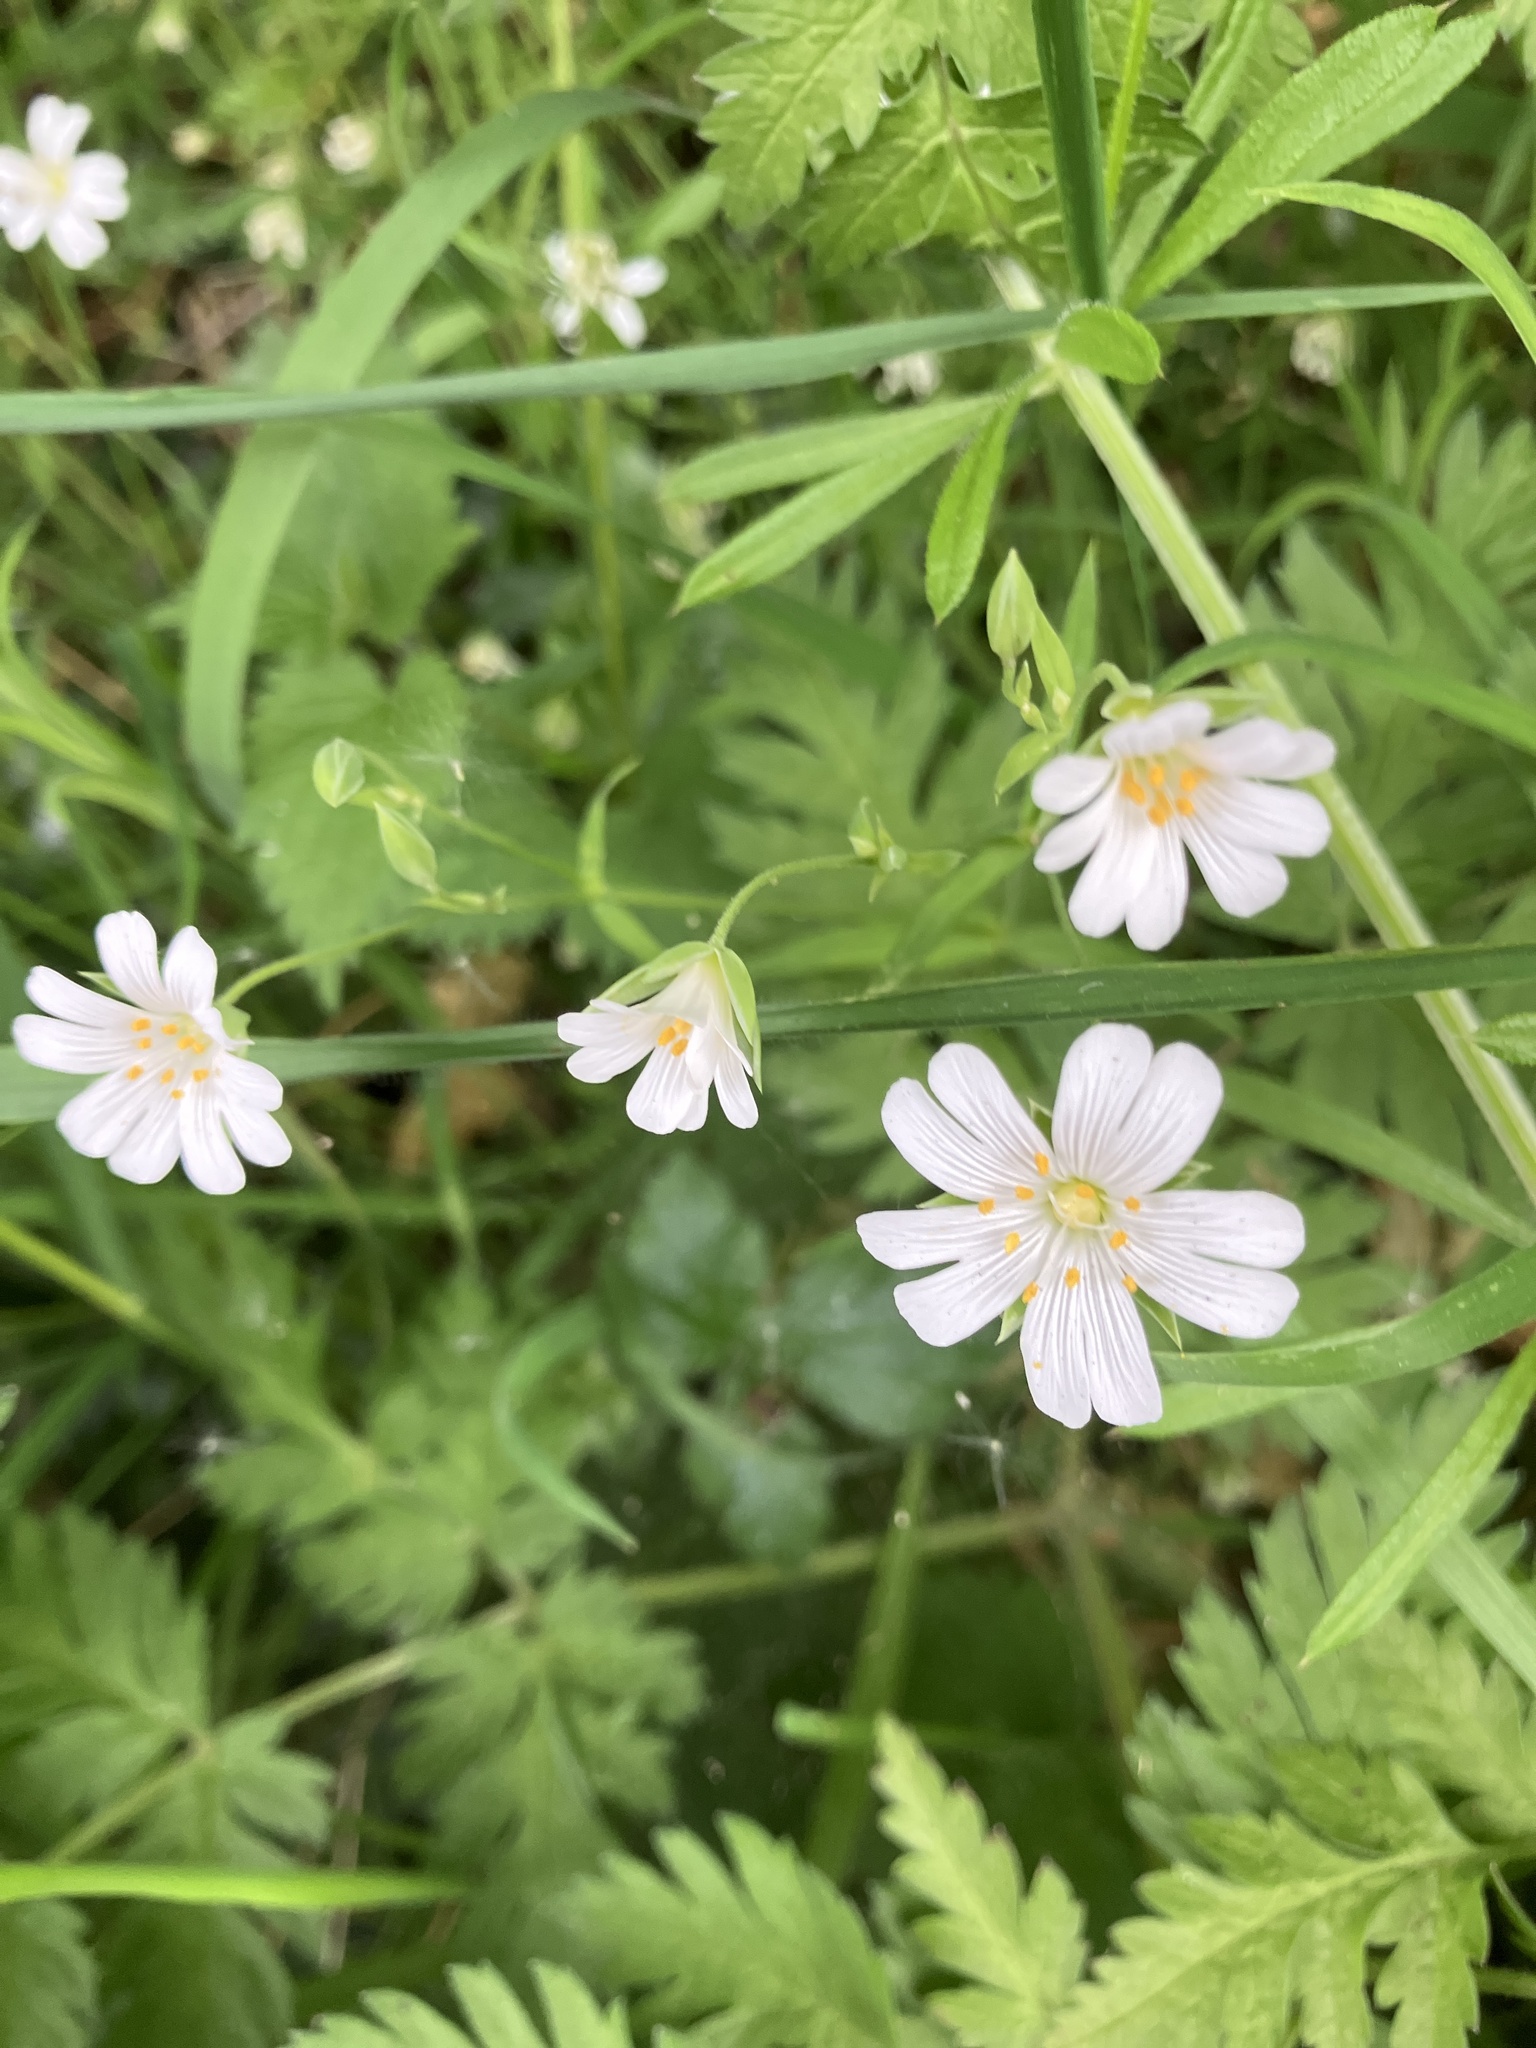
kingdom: Plantae
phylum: Tracheophyta
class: Magnoliopsida
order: Caryophyllales
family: Caryophyllaceae
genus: Rabelera
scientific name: Rabelera holostea
